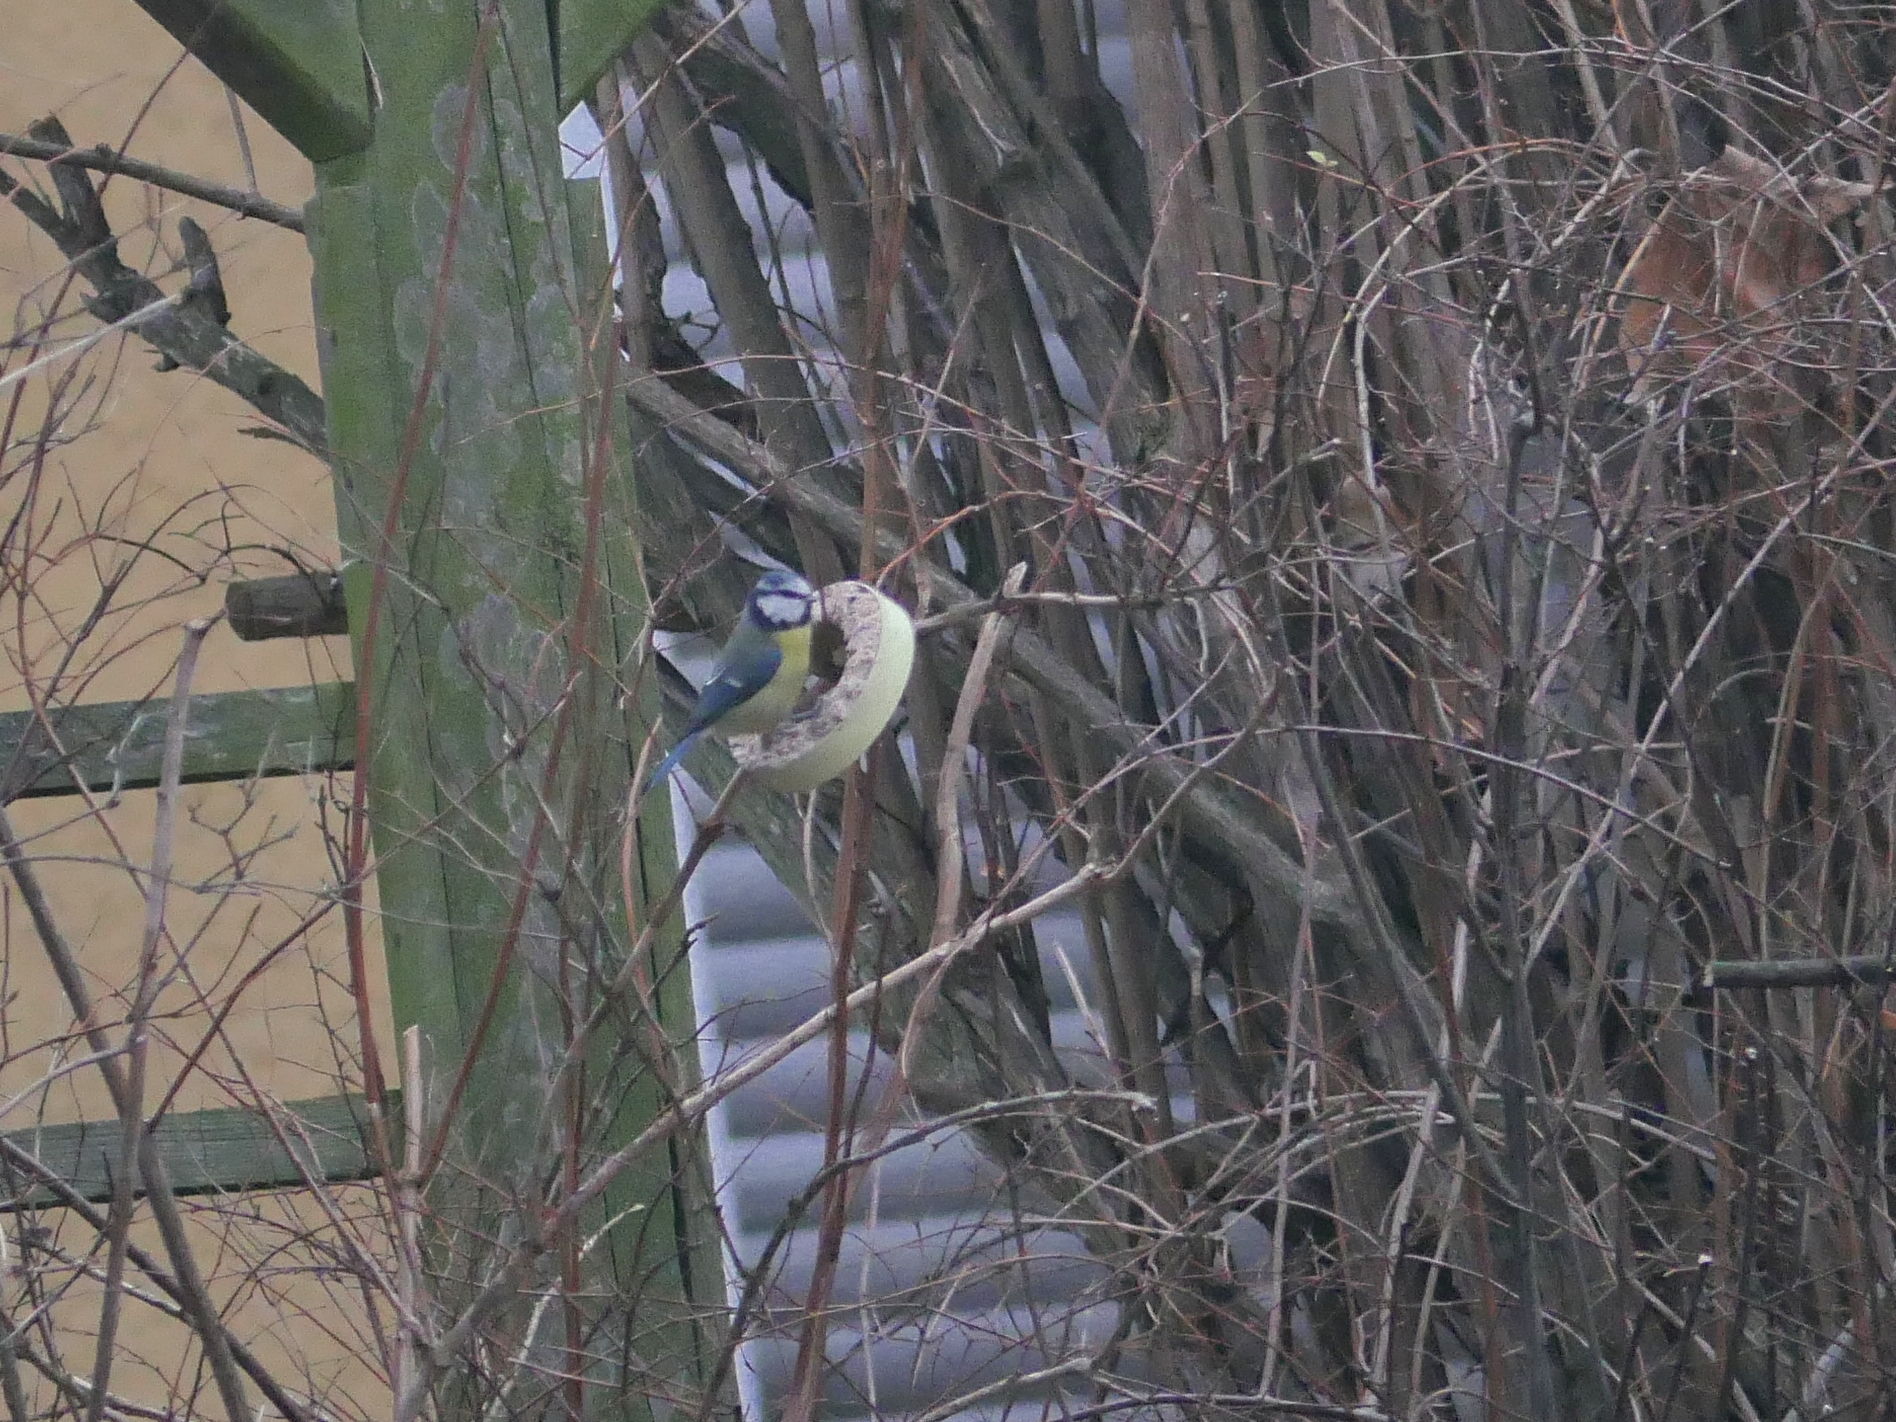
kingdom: Animalia
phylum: Chordata
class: Aves
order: Passeriformes
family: Paridae
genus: Cyanistes
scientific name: Cyanistes caeruleus
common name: Eurasian blue tit
